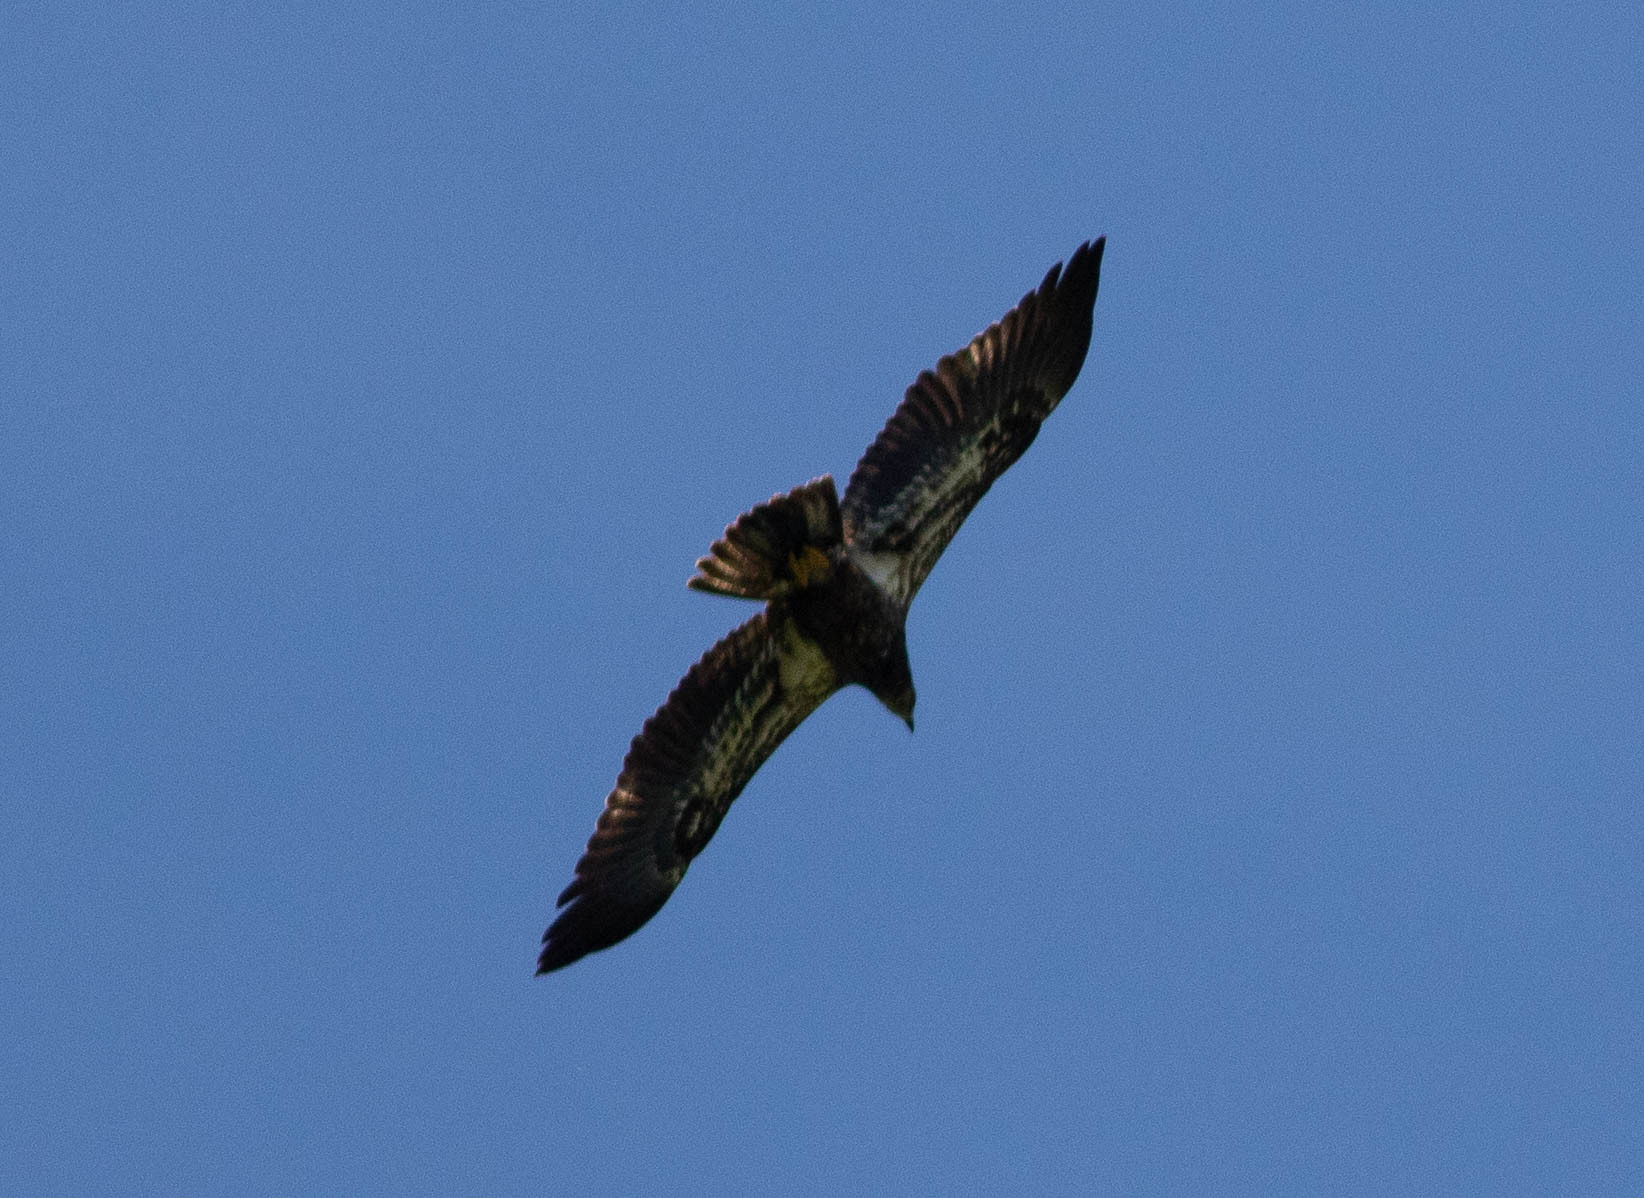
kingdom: Animalia
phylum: Chordata
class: Aves
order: Accipitriformes
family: Accipitridae
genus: Haliaeetus
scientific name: Haliaeetus leucocephalus
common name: Bald eagle
